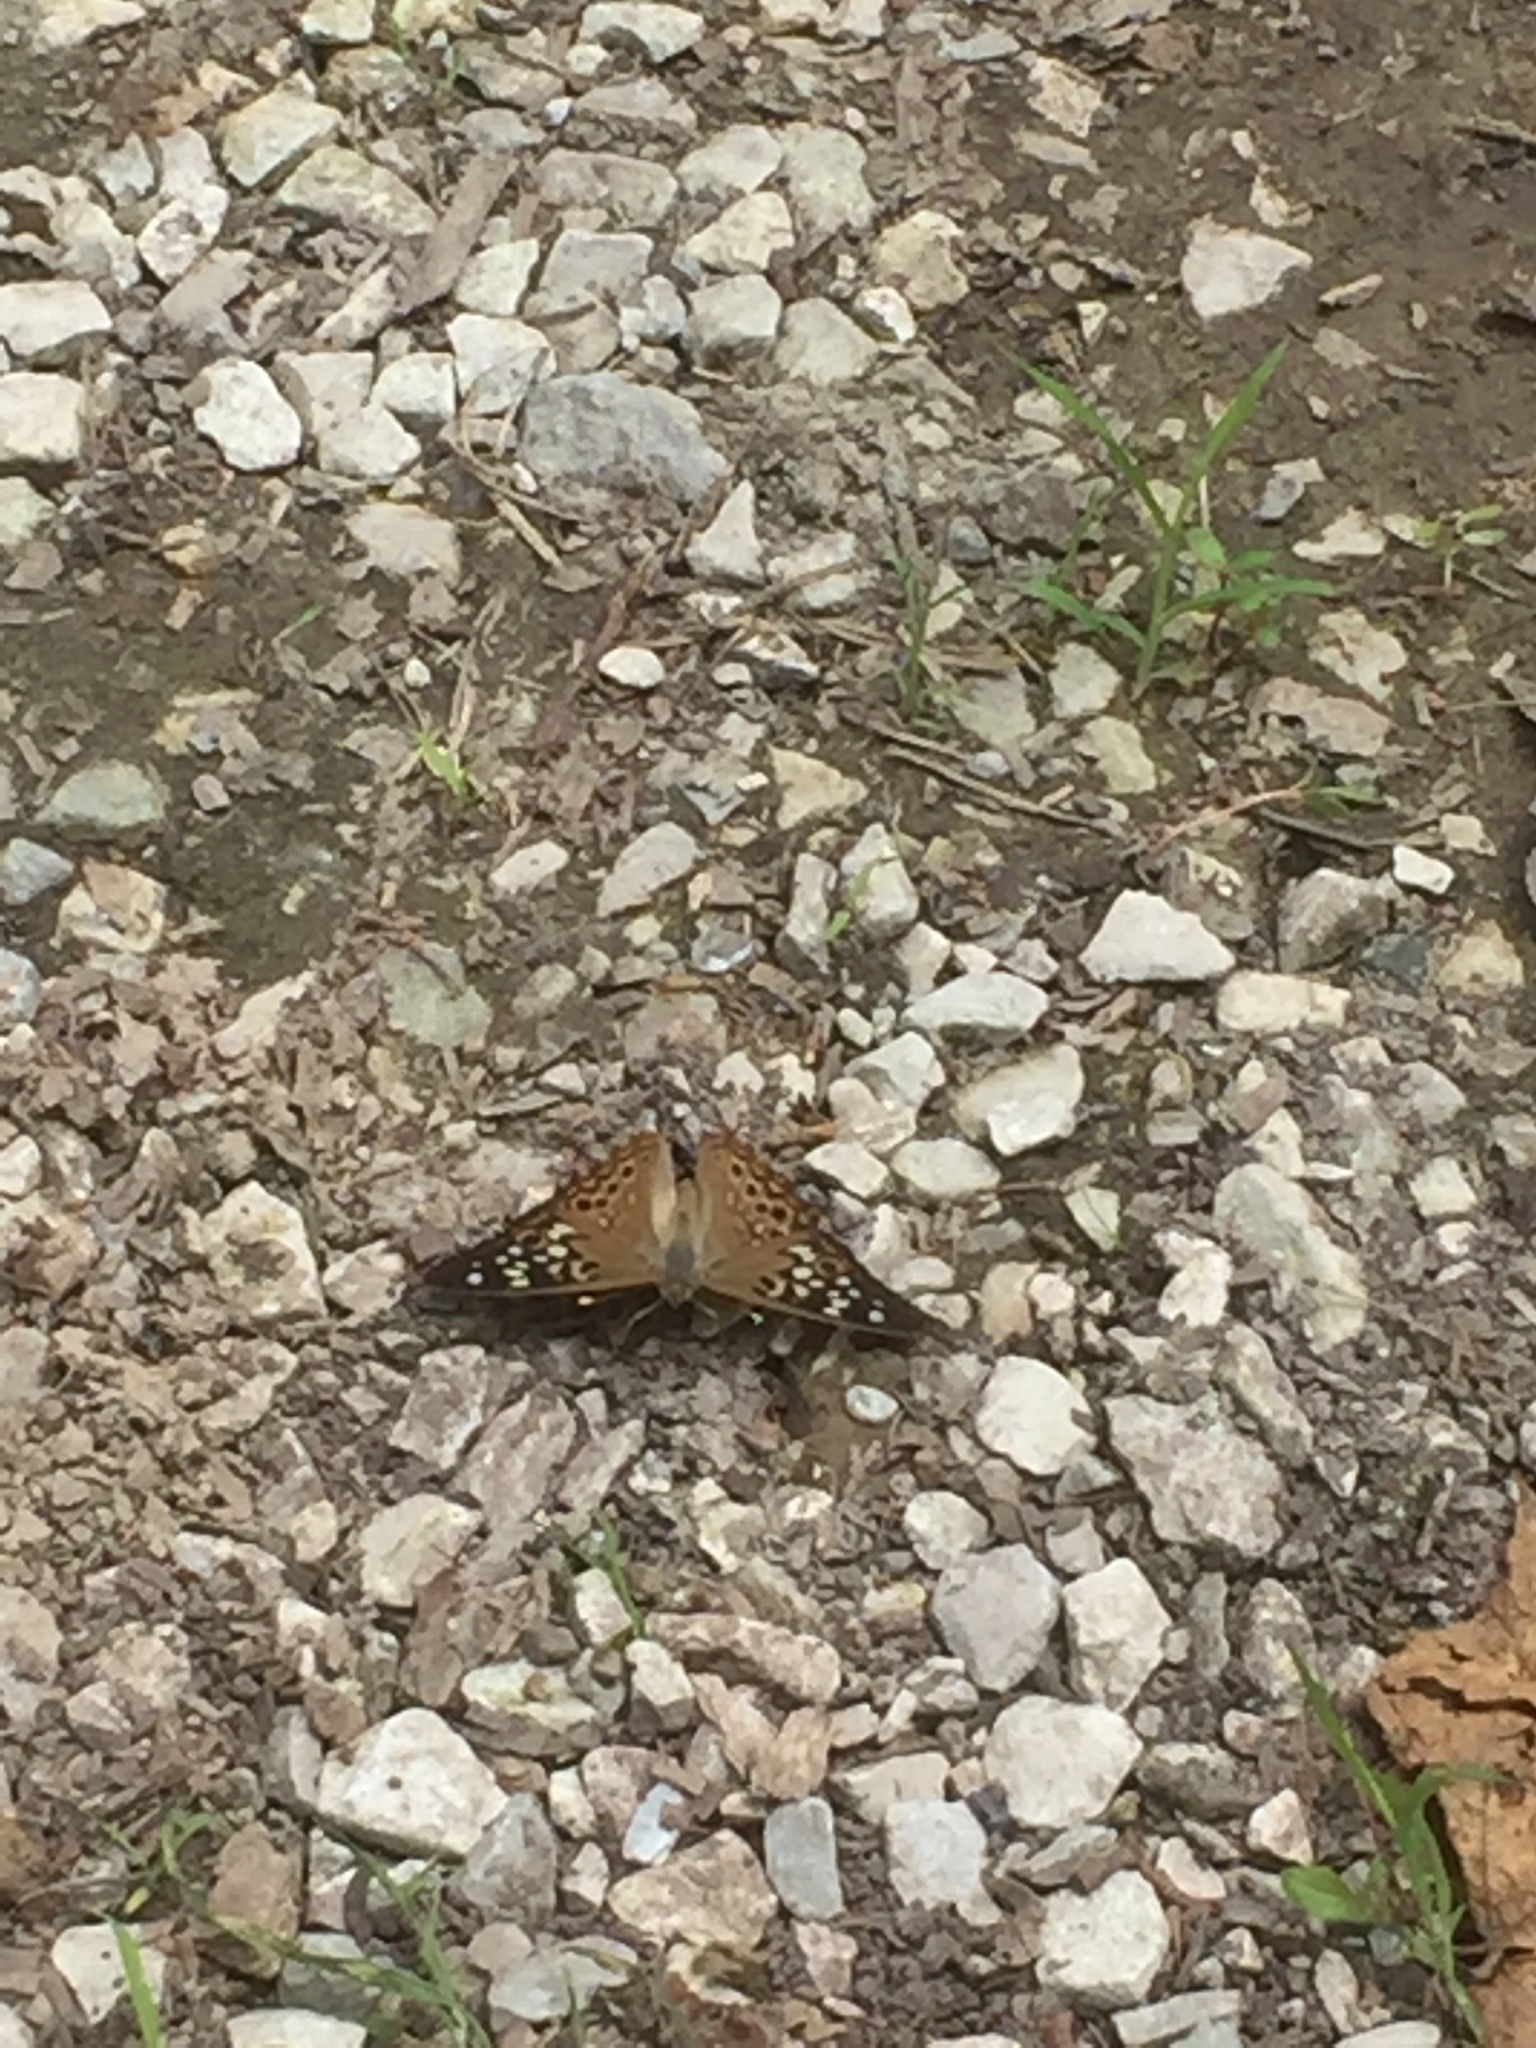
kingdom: Animalia
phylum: Arthropoda
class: Insecta
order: Lepidoptera
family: Nymphalidae
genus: Asterocampa
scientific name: Asterocampa celtis
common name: Hackberry emperor
